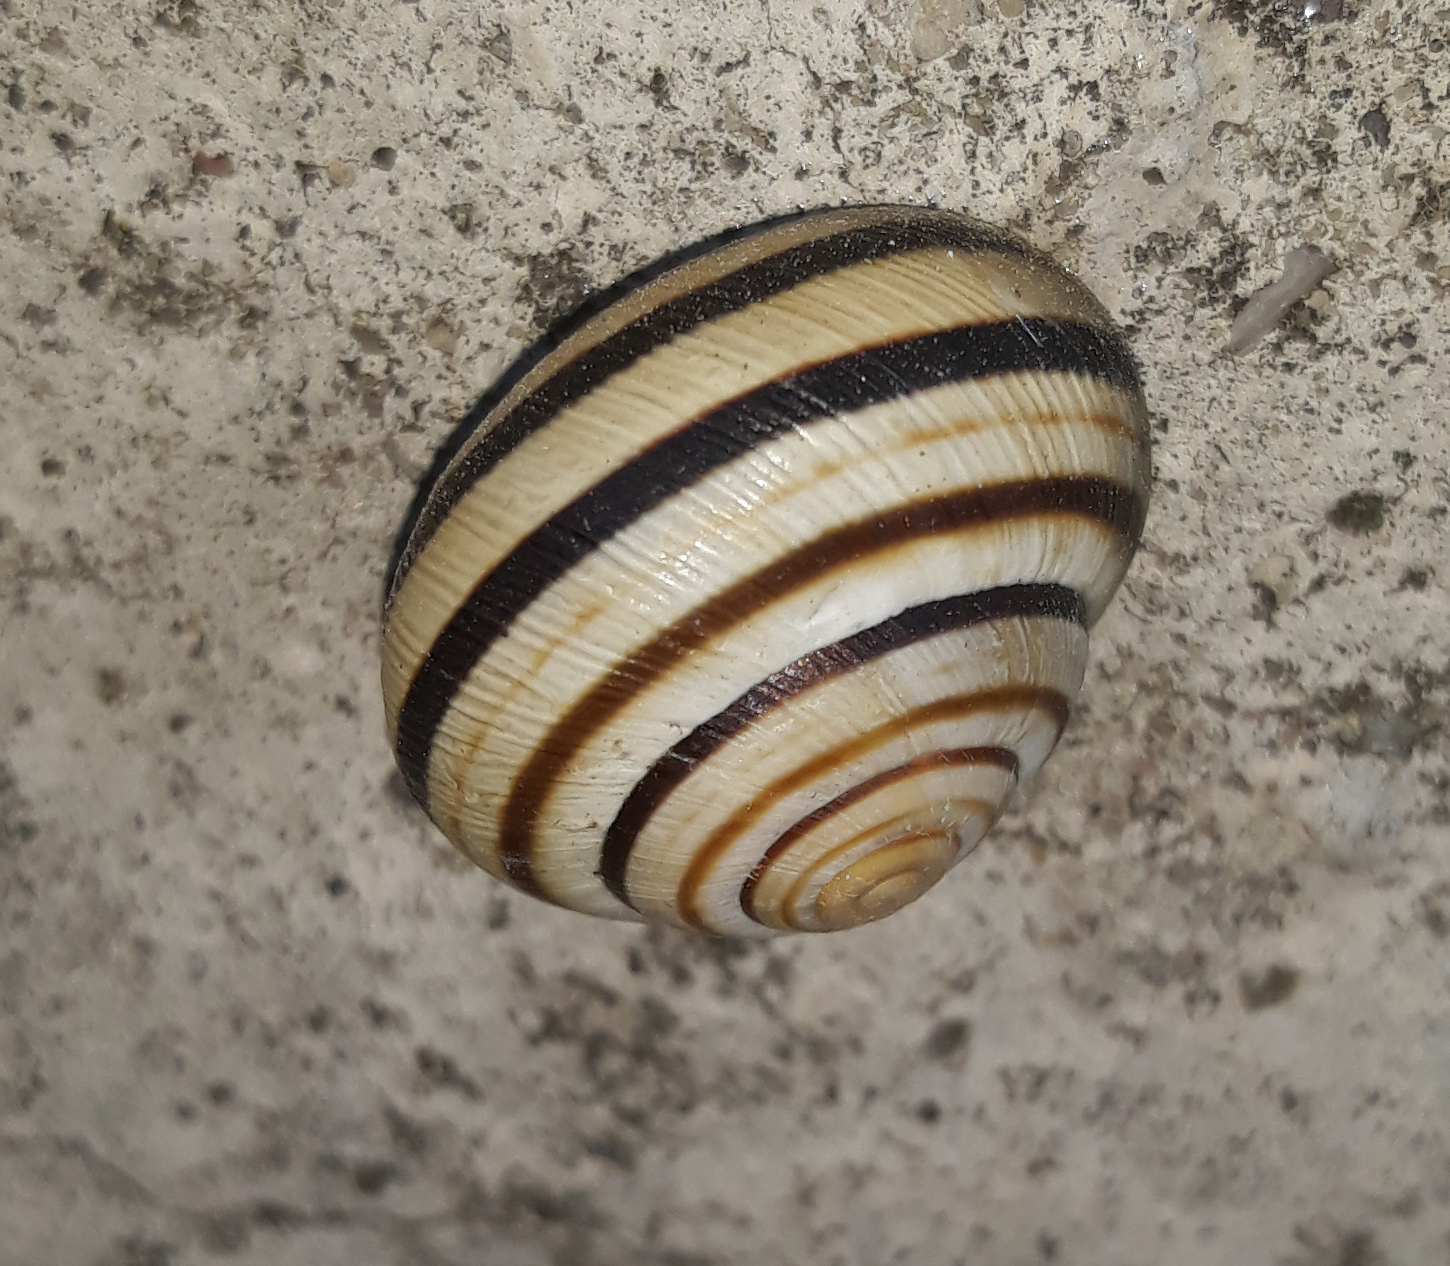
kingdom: Animalia
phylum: Mollusca
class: Gastropoda
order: Stylommatophora
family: Helicidae
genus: Caucasotachea
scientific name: Caucasotachea vindobonensis
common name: European helicid land snail
